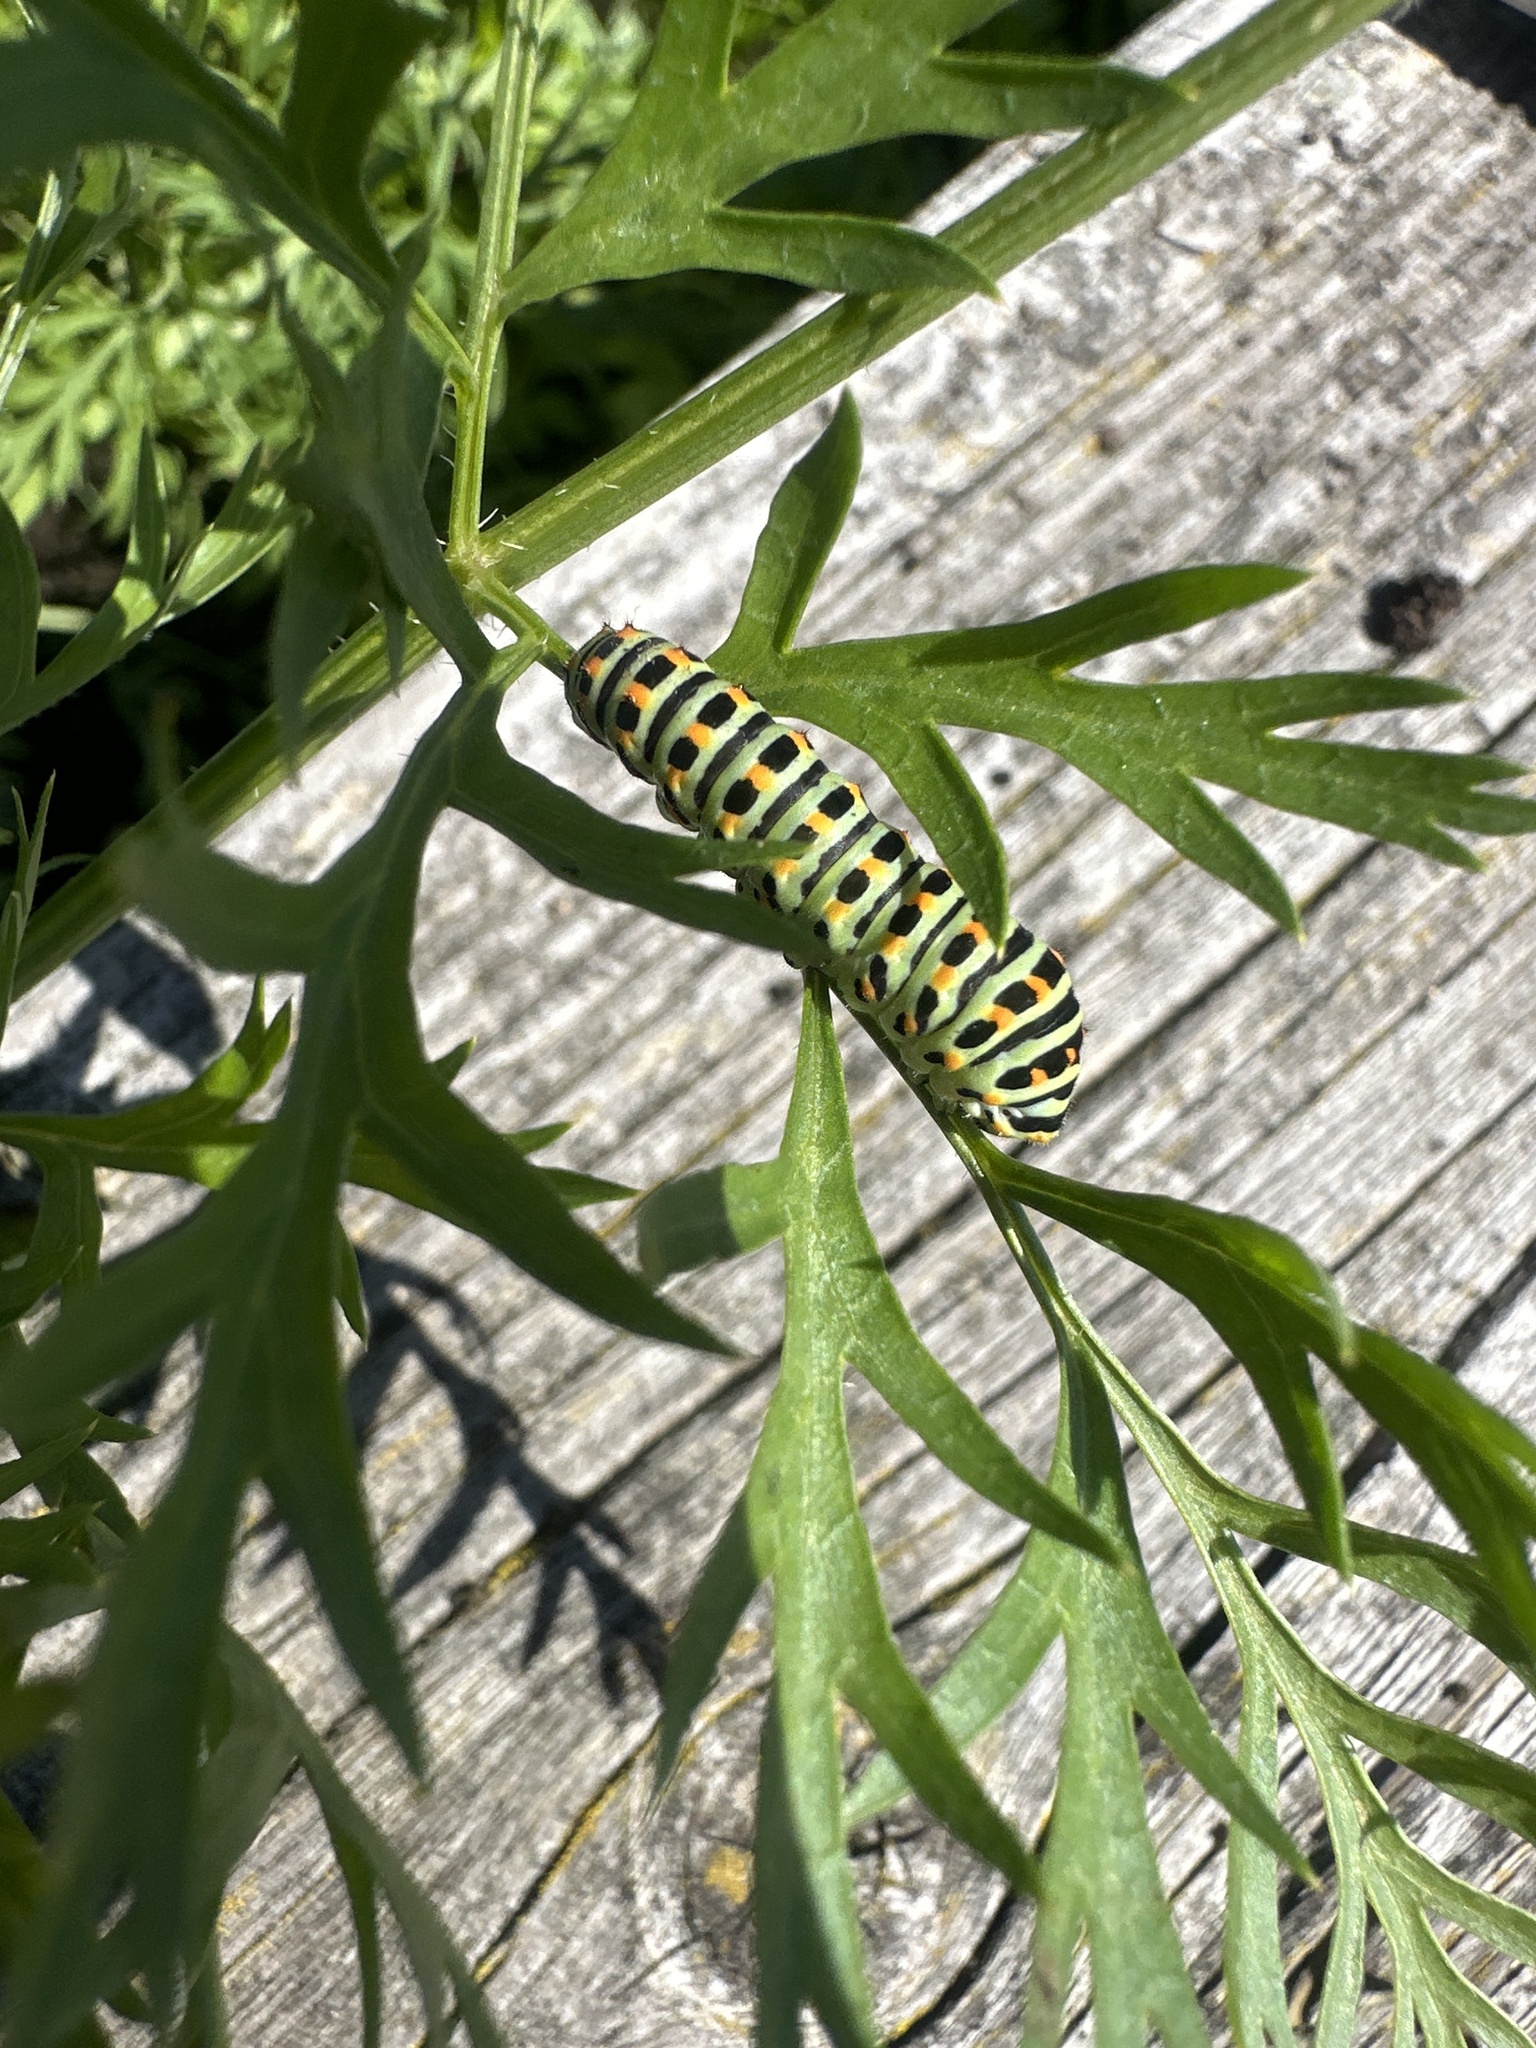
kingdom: Animalia
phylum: Arthropoda
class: Insecta
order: Lepidoptera
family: Papilionidae
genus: Papilio
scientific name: Papilio machaon
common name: Swallowtail
